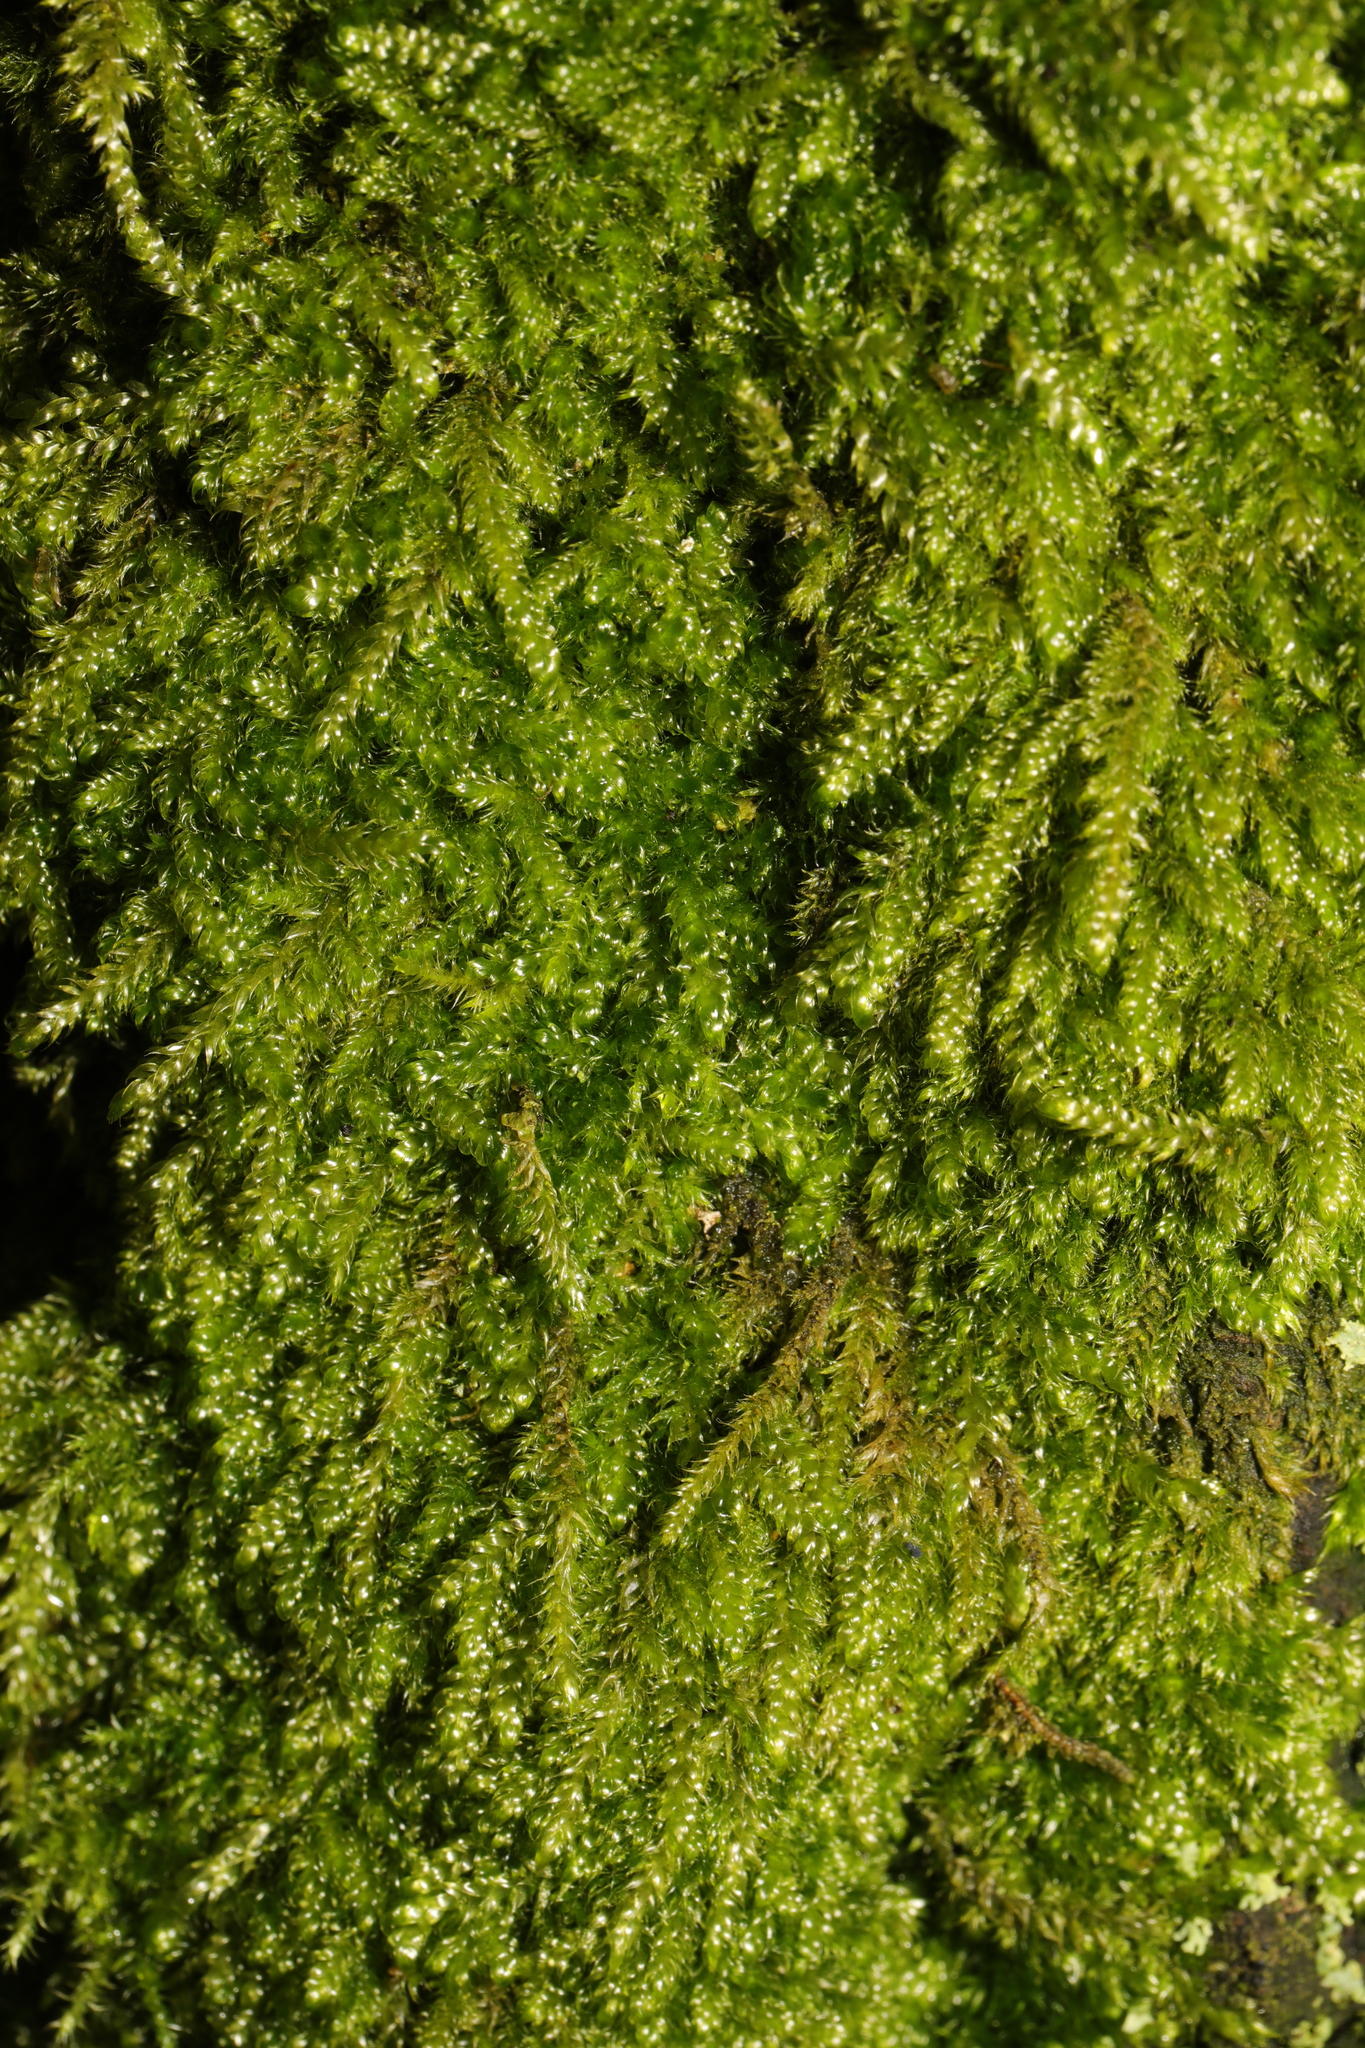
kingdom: Plantae
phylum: Bryophyta
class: Bryopsida
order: Hypnales
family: Hypnaceae
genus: Hypnum
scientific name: Hypnum cupressiforme
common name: Cypress-leaved plait-moss
